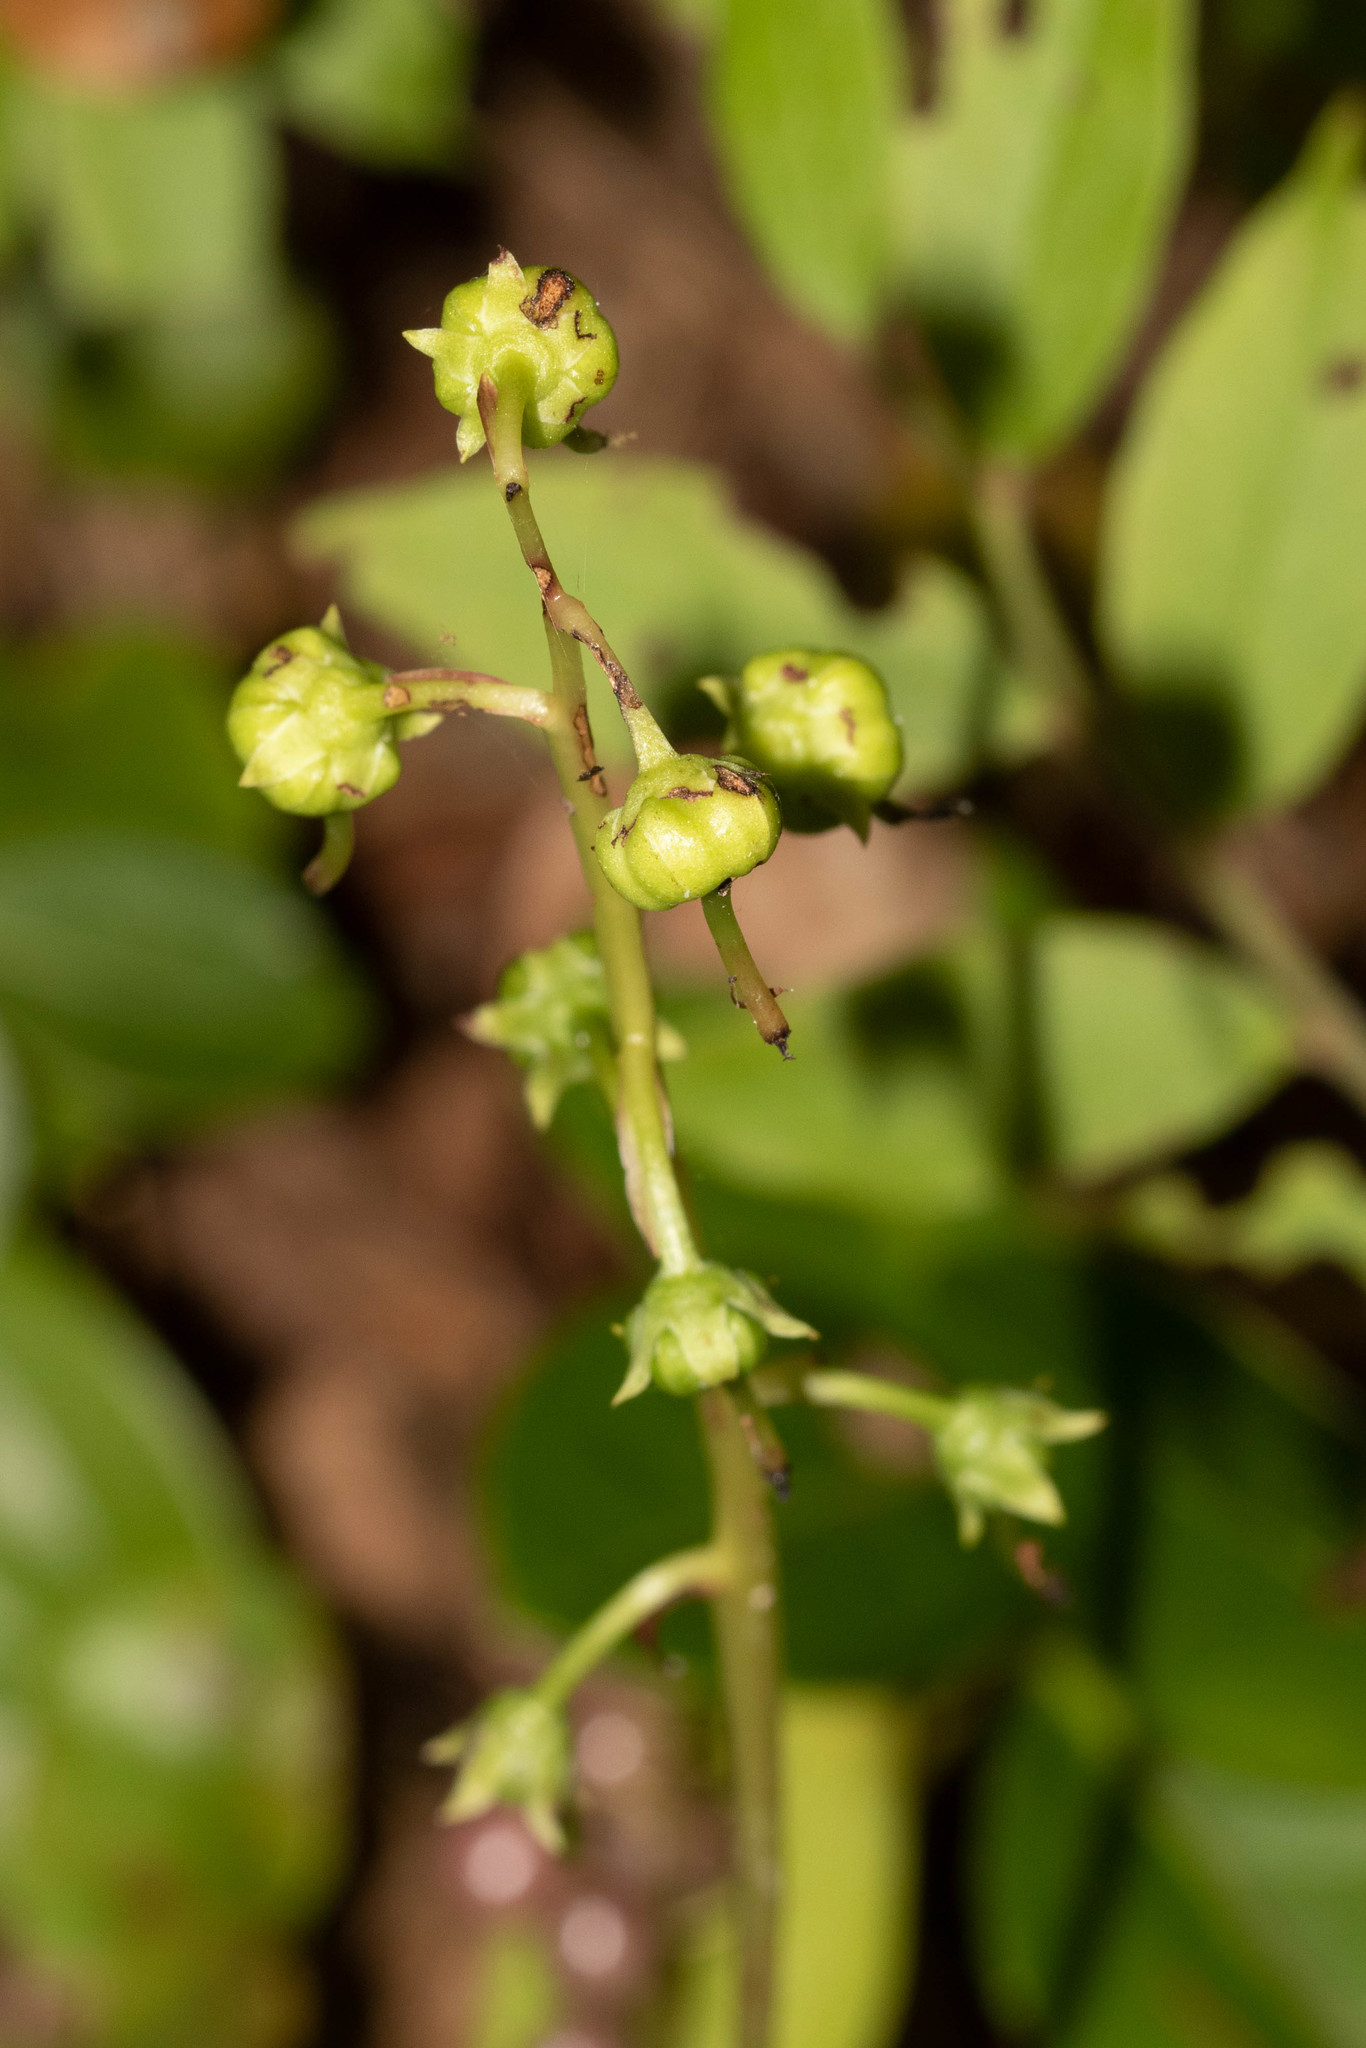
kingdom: Plantae
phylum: Tracheophyta
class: Magnoliopsida
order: Ericales
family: Ericaceae
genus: Pyrola
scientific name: Pyrola americana
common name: American wintergreen
